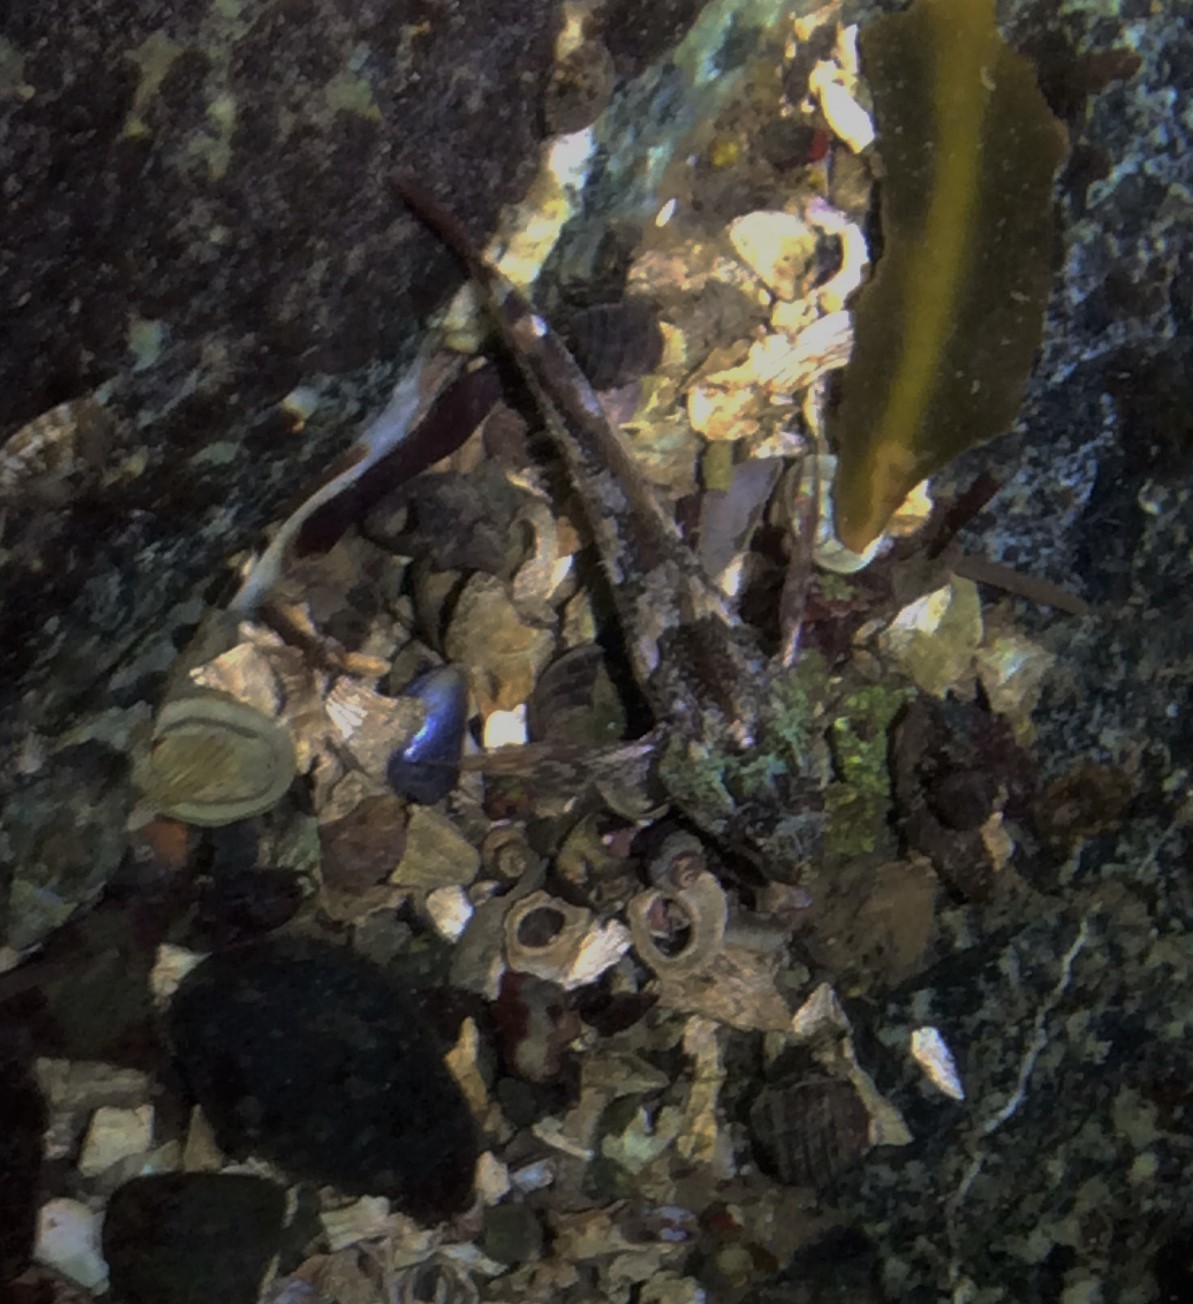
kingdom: Animalia
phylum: Chordata
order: Scorpaeniformes
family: Cottidae
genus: Oligocottus
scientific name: Oligocottus maculosus
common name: Tidepool sculpin
